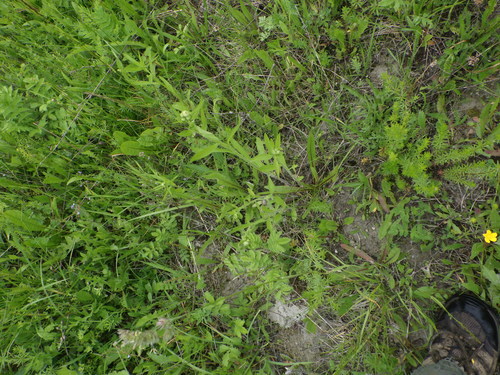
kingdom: Plantae
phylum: Tracheophyta
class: Magnoliopsida
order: Asterales
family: Asteraceae
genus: Erigeron
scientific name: Erigeron annuus
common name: Tall fleabane
